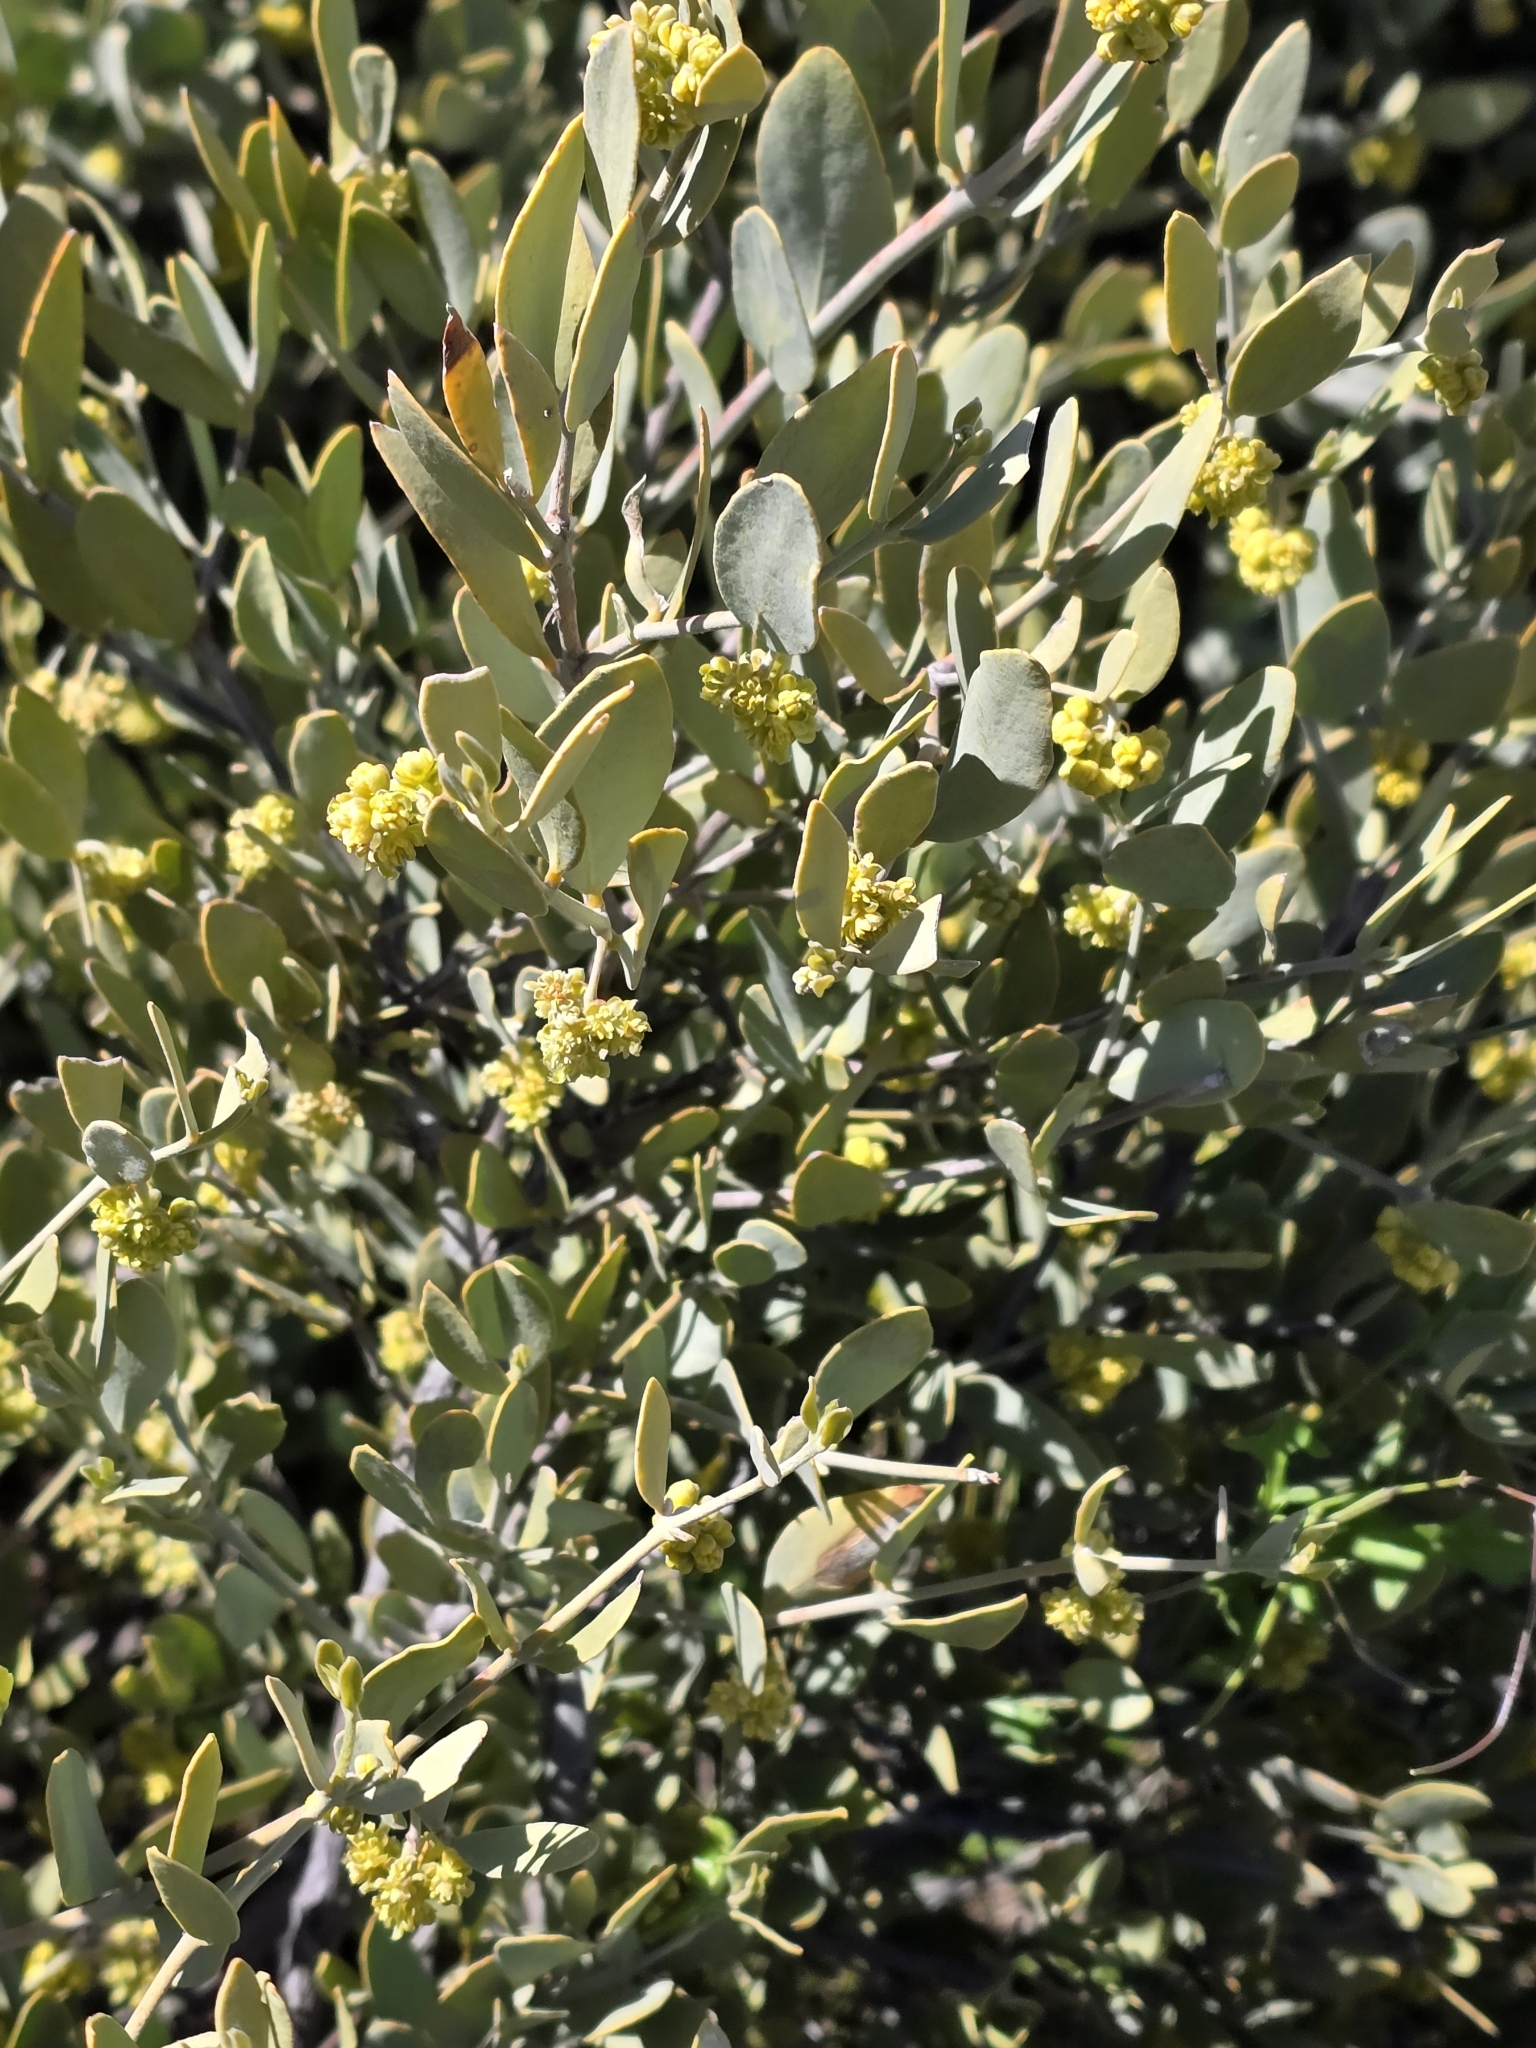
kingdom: Plantae
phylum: Tracheophyta
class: Magnoliopsida
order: Caryophyllales
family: Simmondsiaceae
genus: Simmondsia
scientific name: Simmondsia chinensis
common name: Jojoba
